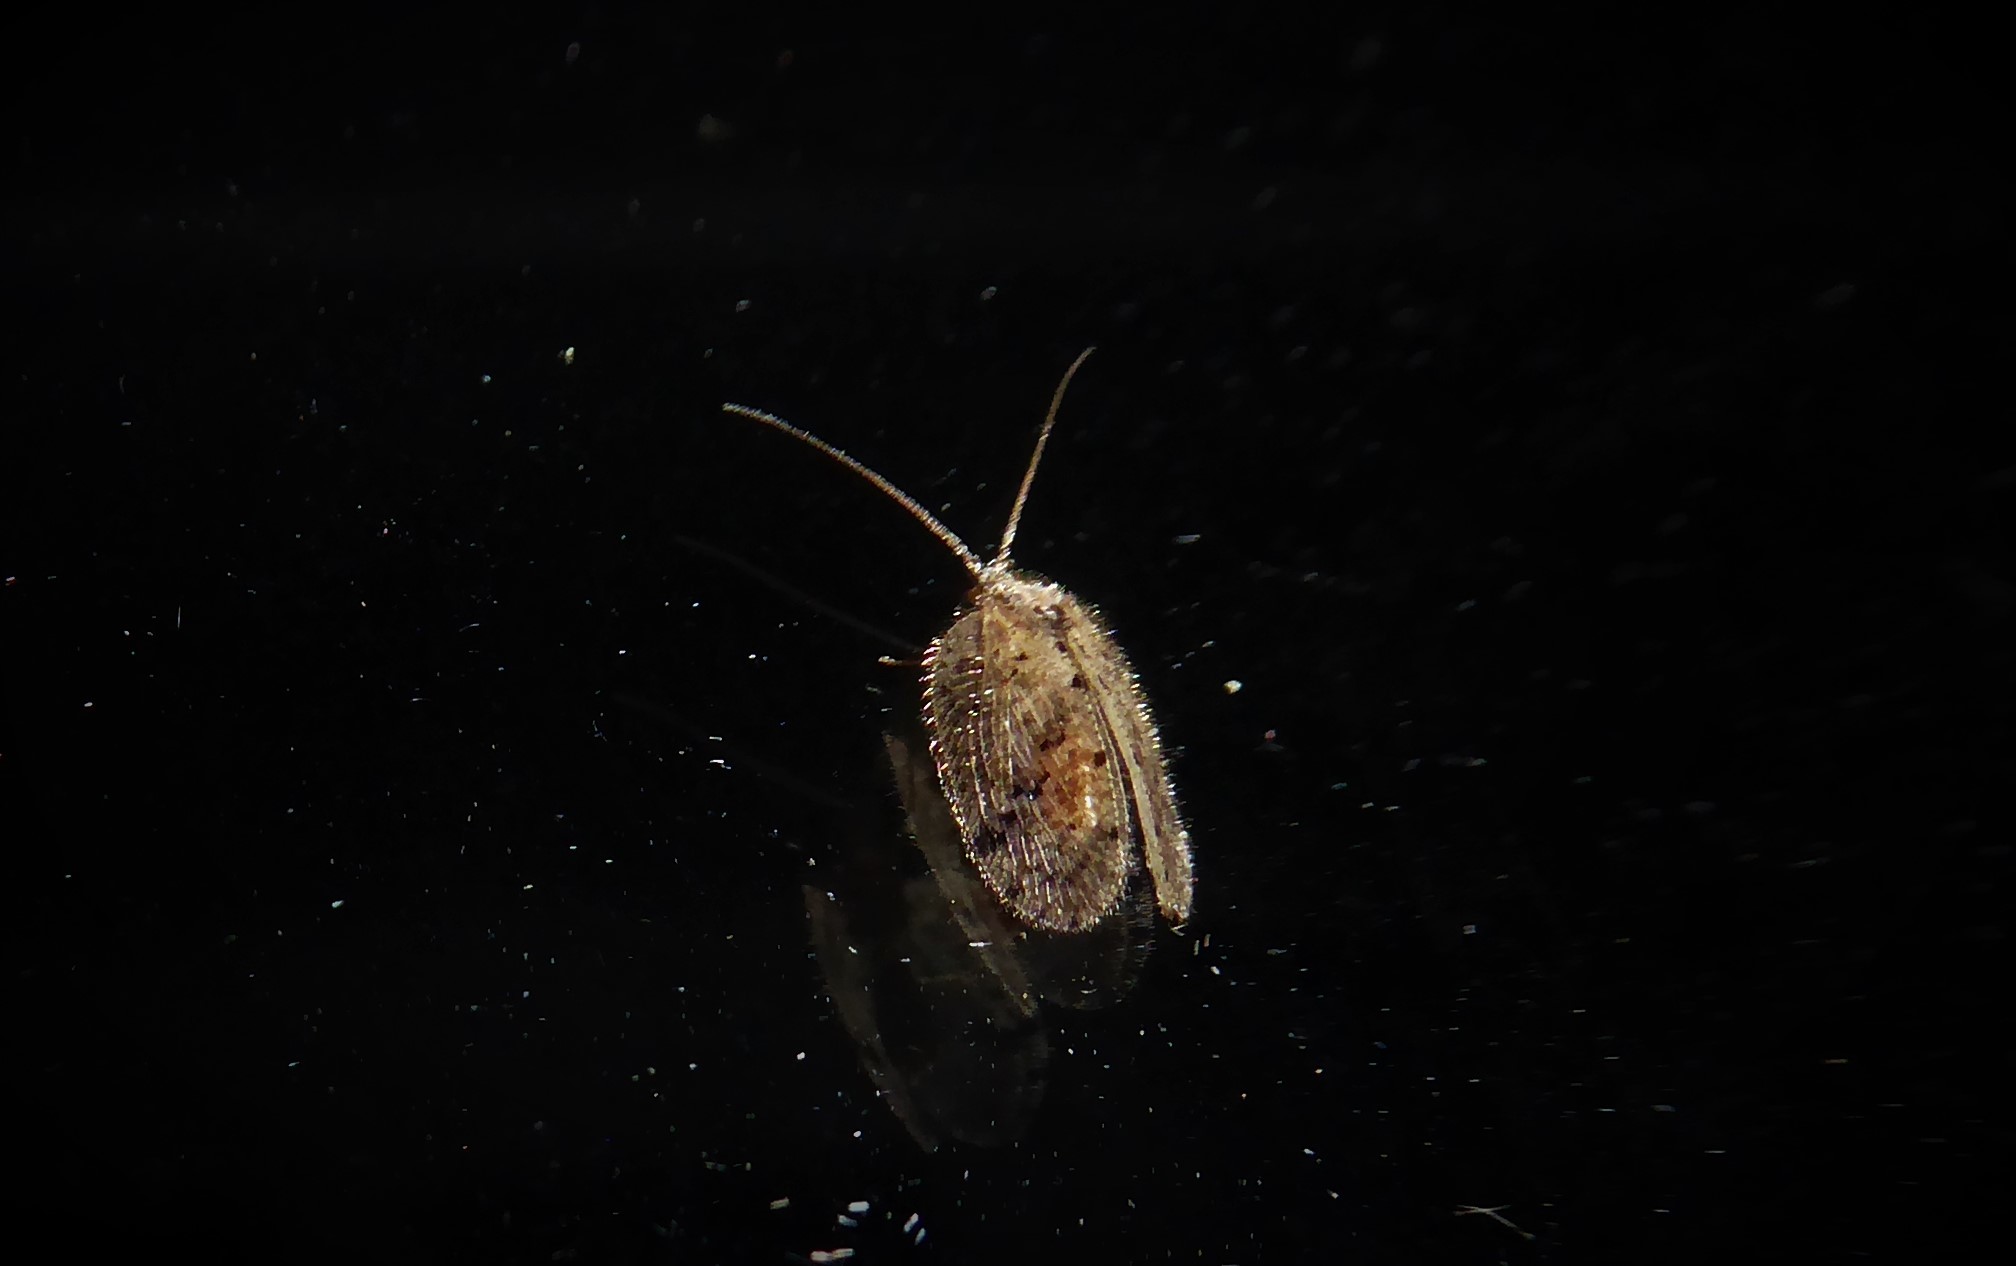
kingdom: Animalia
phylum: Arthropoda
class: Insecta
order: Neuroptera
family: Hemerobiidae
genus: Psectra
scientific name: Psectra nakaharai
